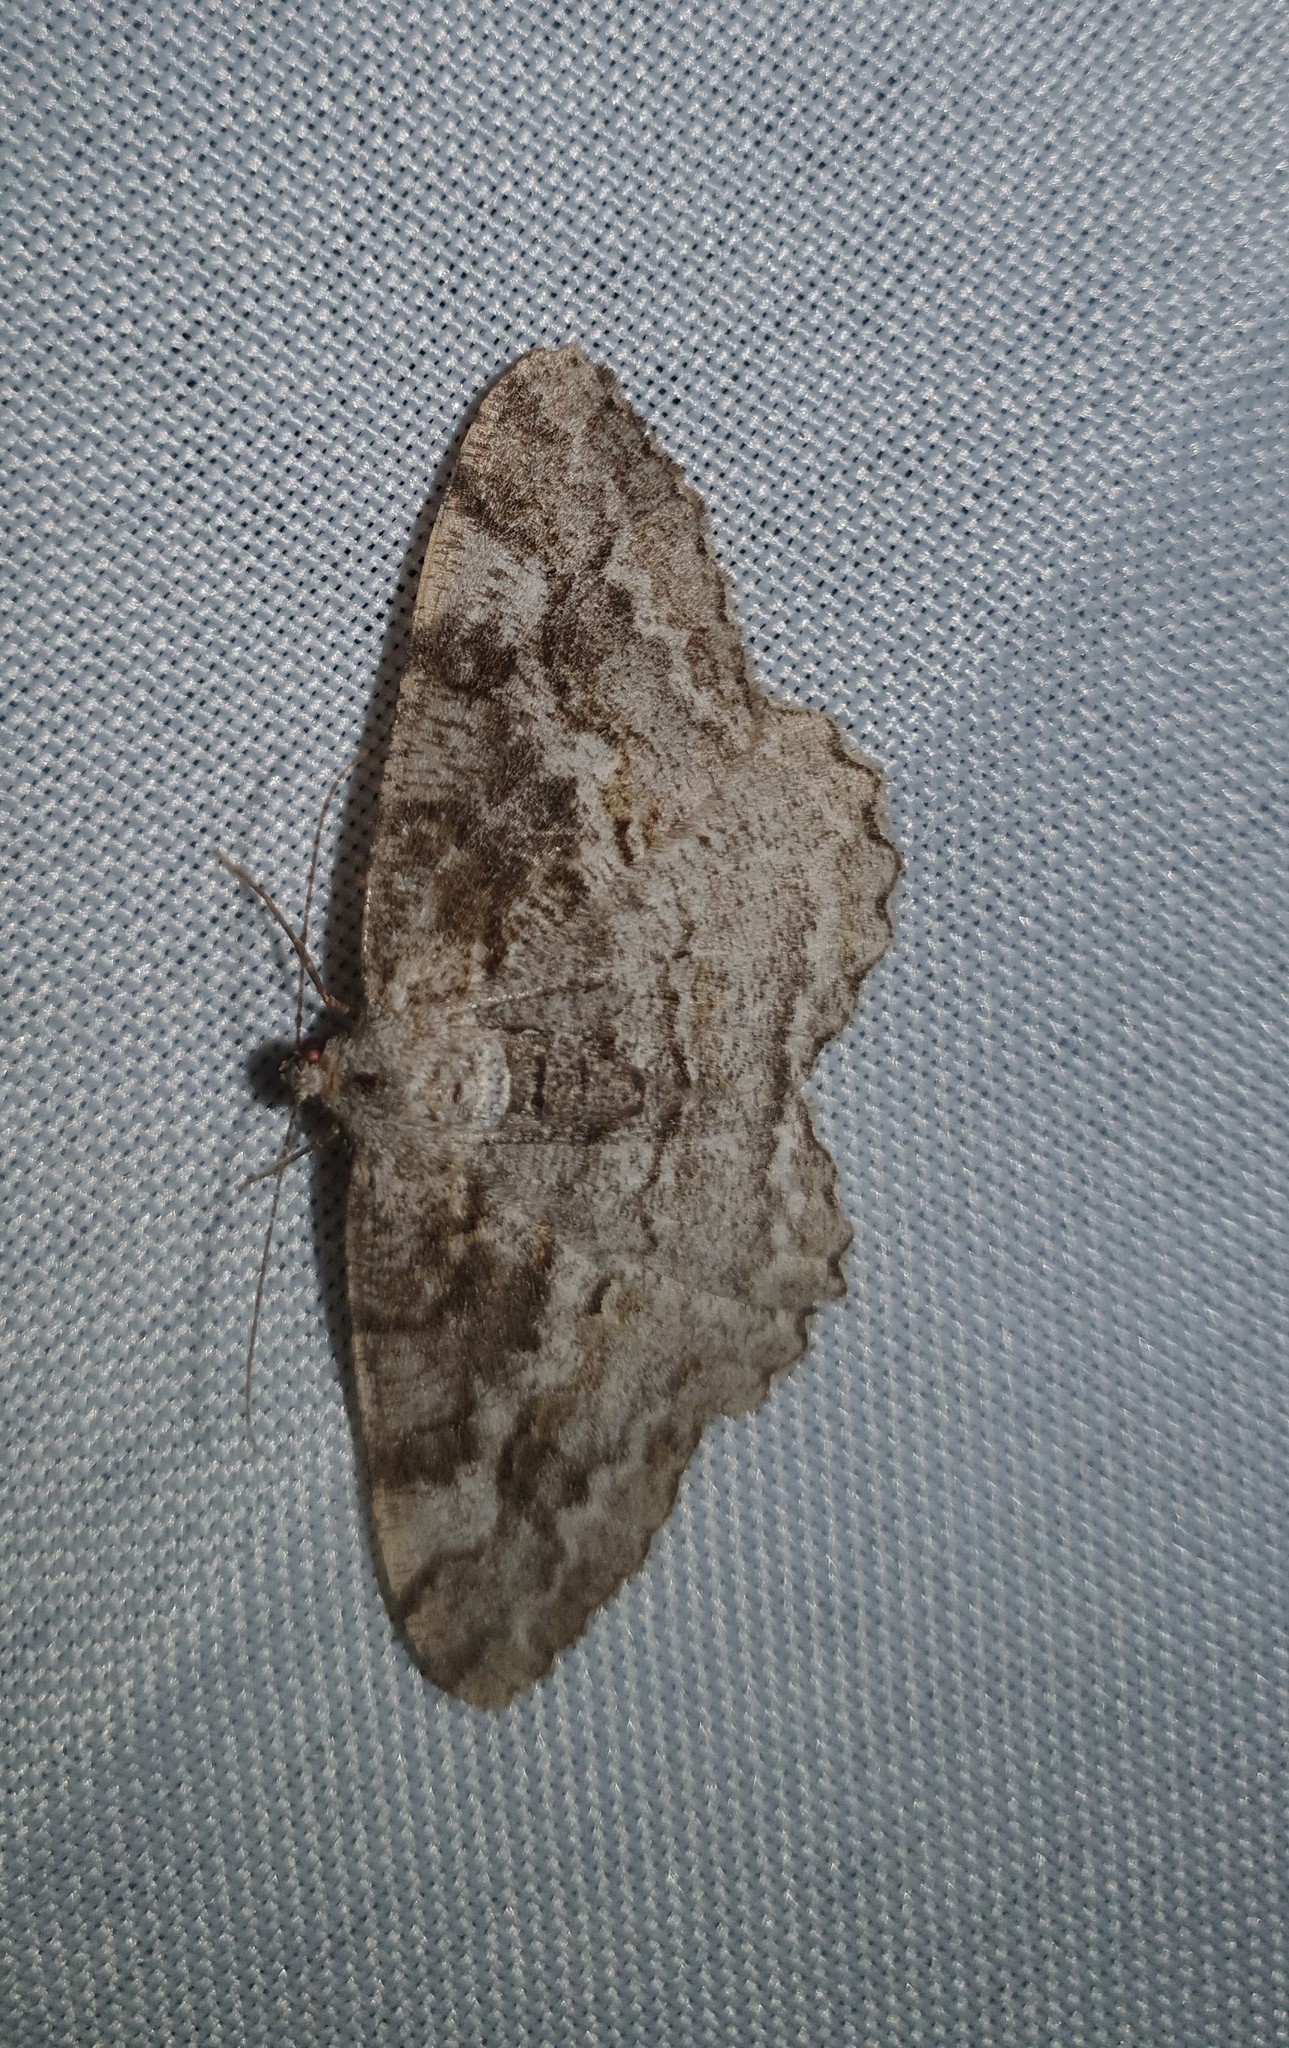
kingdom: Animalia
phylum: Arthropoda
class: Insecta
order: Lepidoptera
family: Geometridae
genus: Alcis
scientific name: Alcis repandata
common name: Mottled beauty
